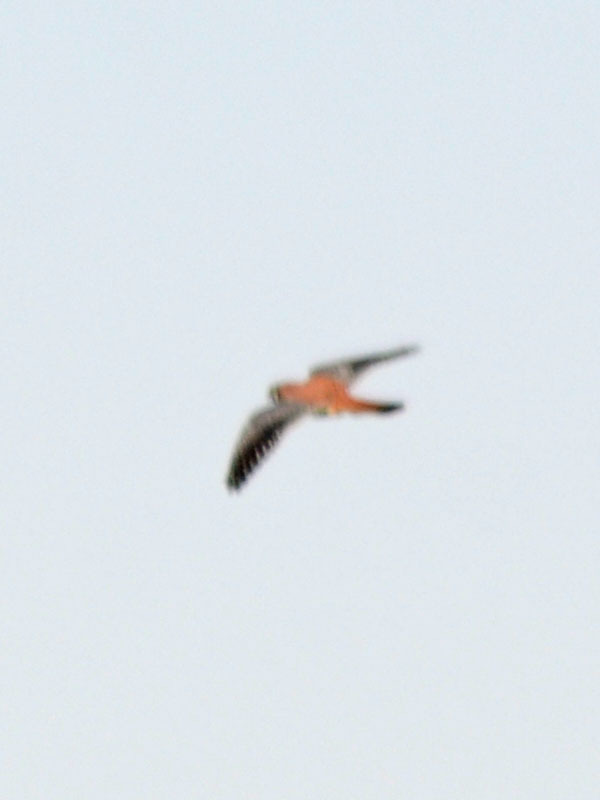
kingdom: Animalia
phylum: Chordata
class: Aves
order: Falconiformes
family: Falconidae
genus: Falco
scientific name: Falco sparverius
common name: American kestrel
